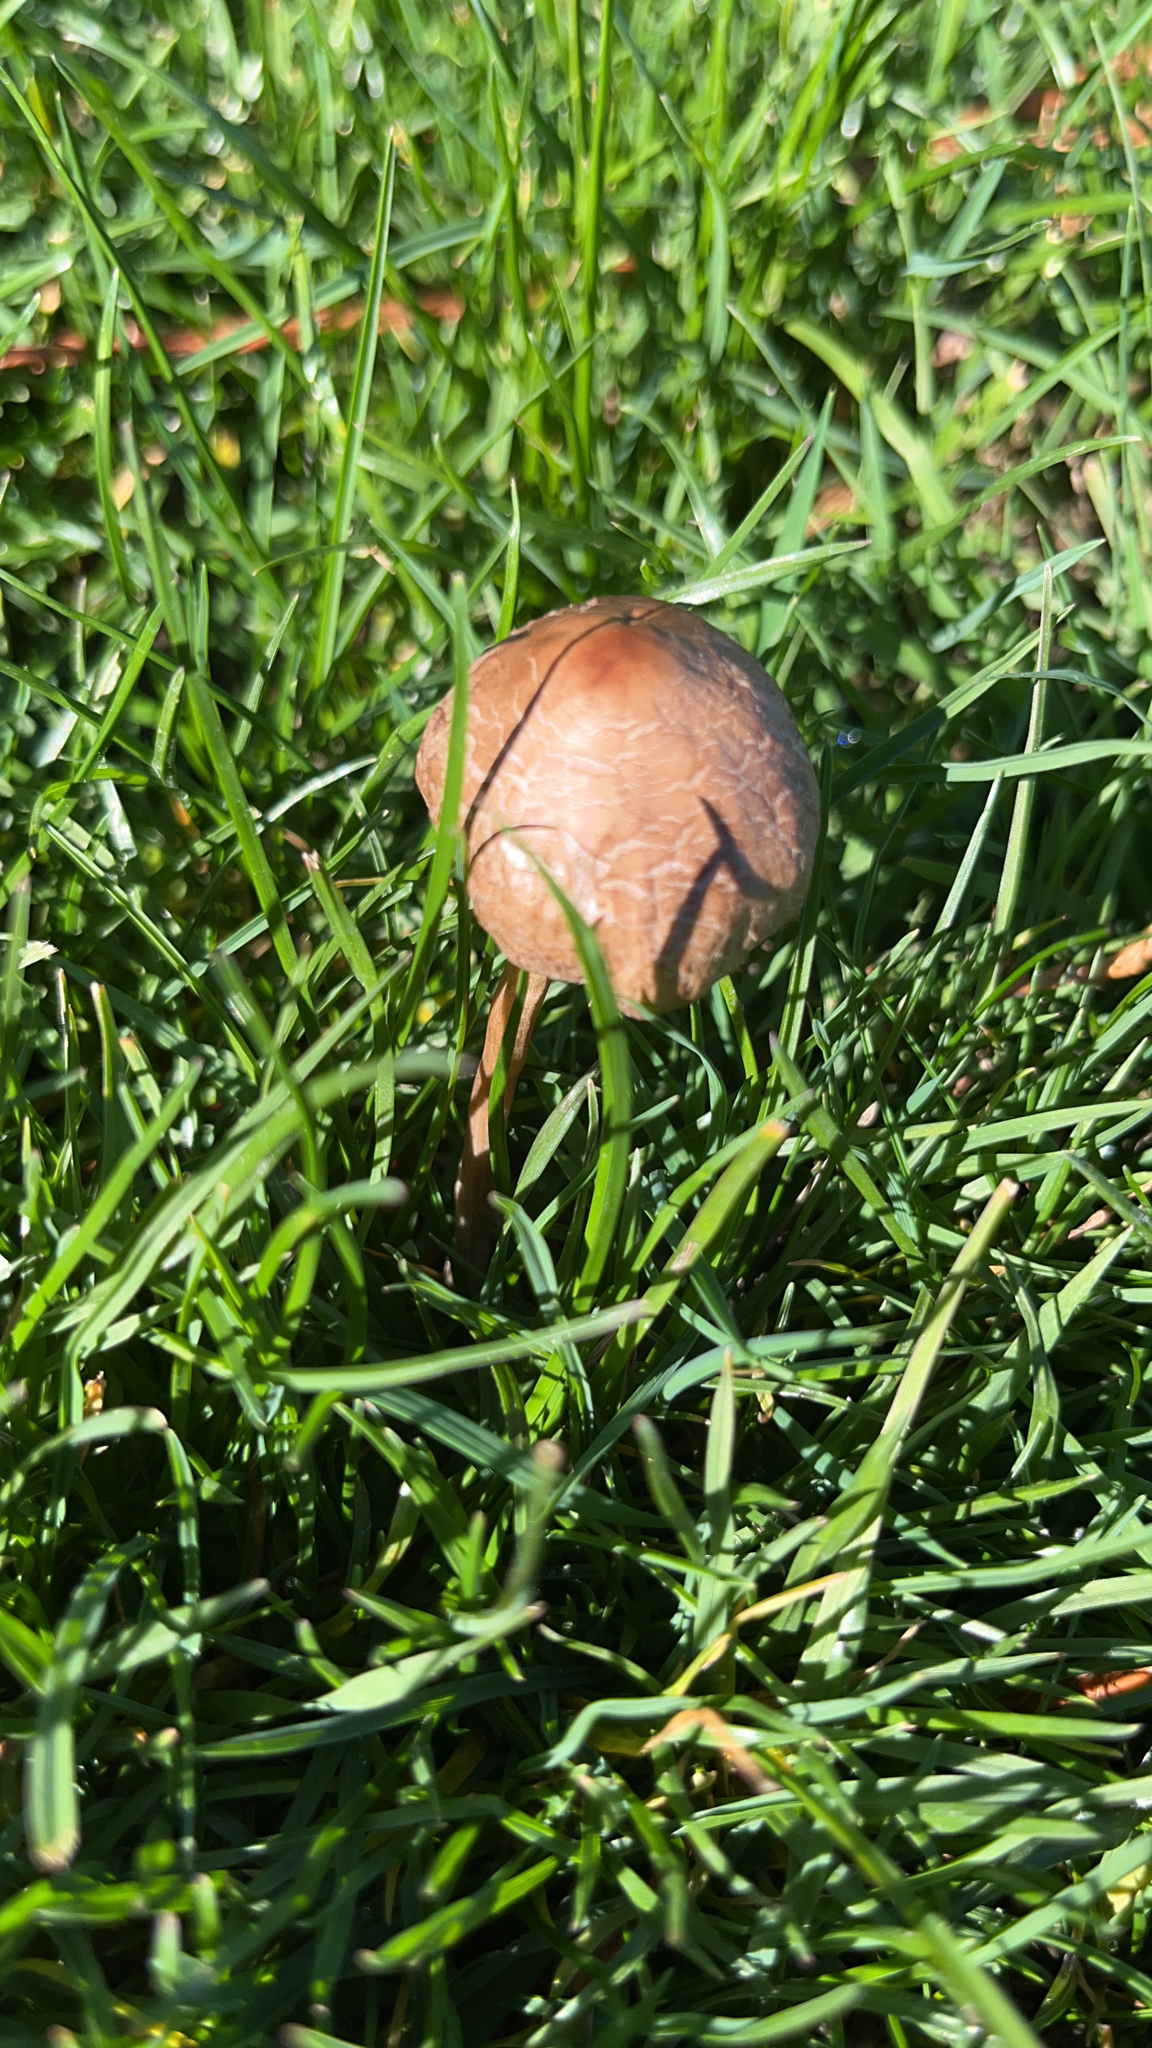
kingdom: Fungi
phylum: Basidiomycota
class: Agaricomycetes
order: Agaricales
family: Bolbitiaceae
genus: Panaeolina
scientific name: Panaeolina foenisecii
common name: Brown hay cap
